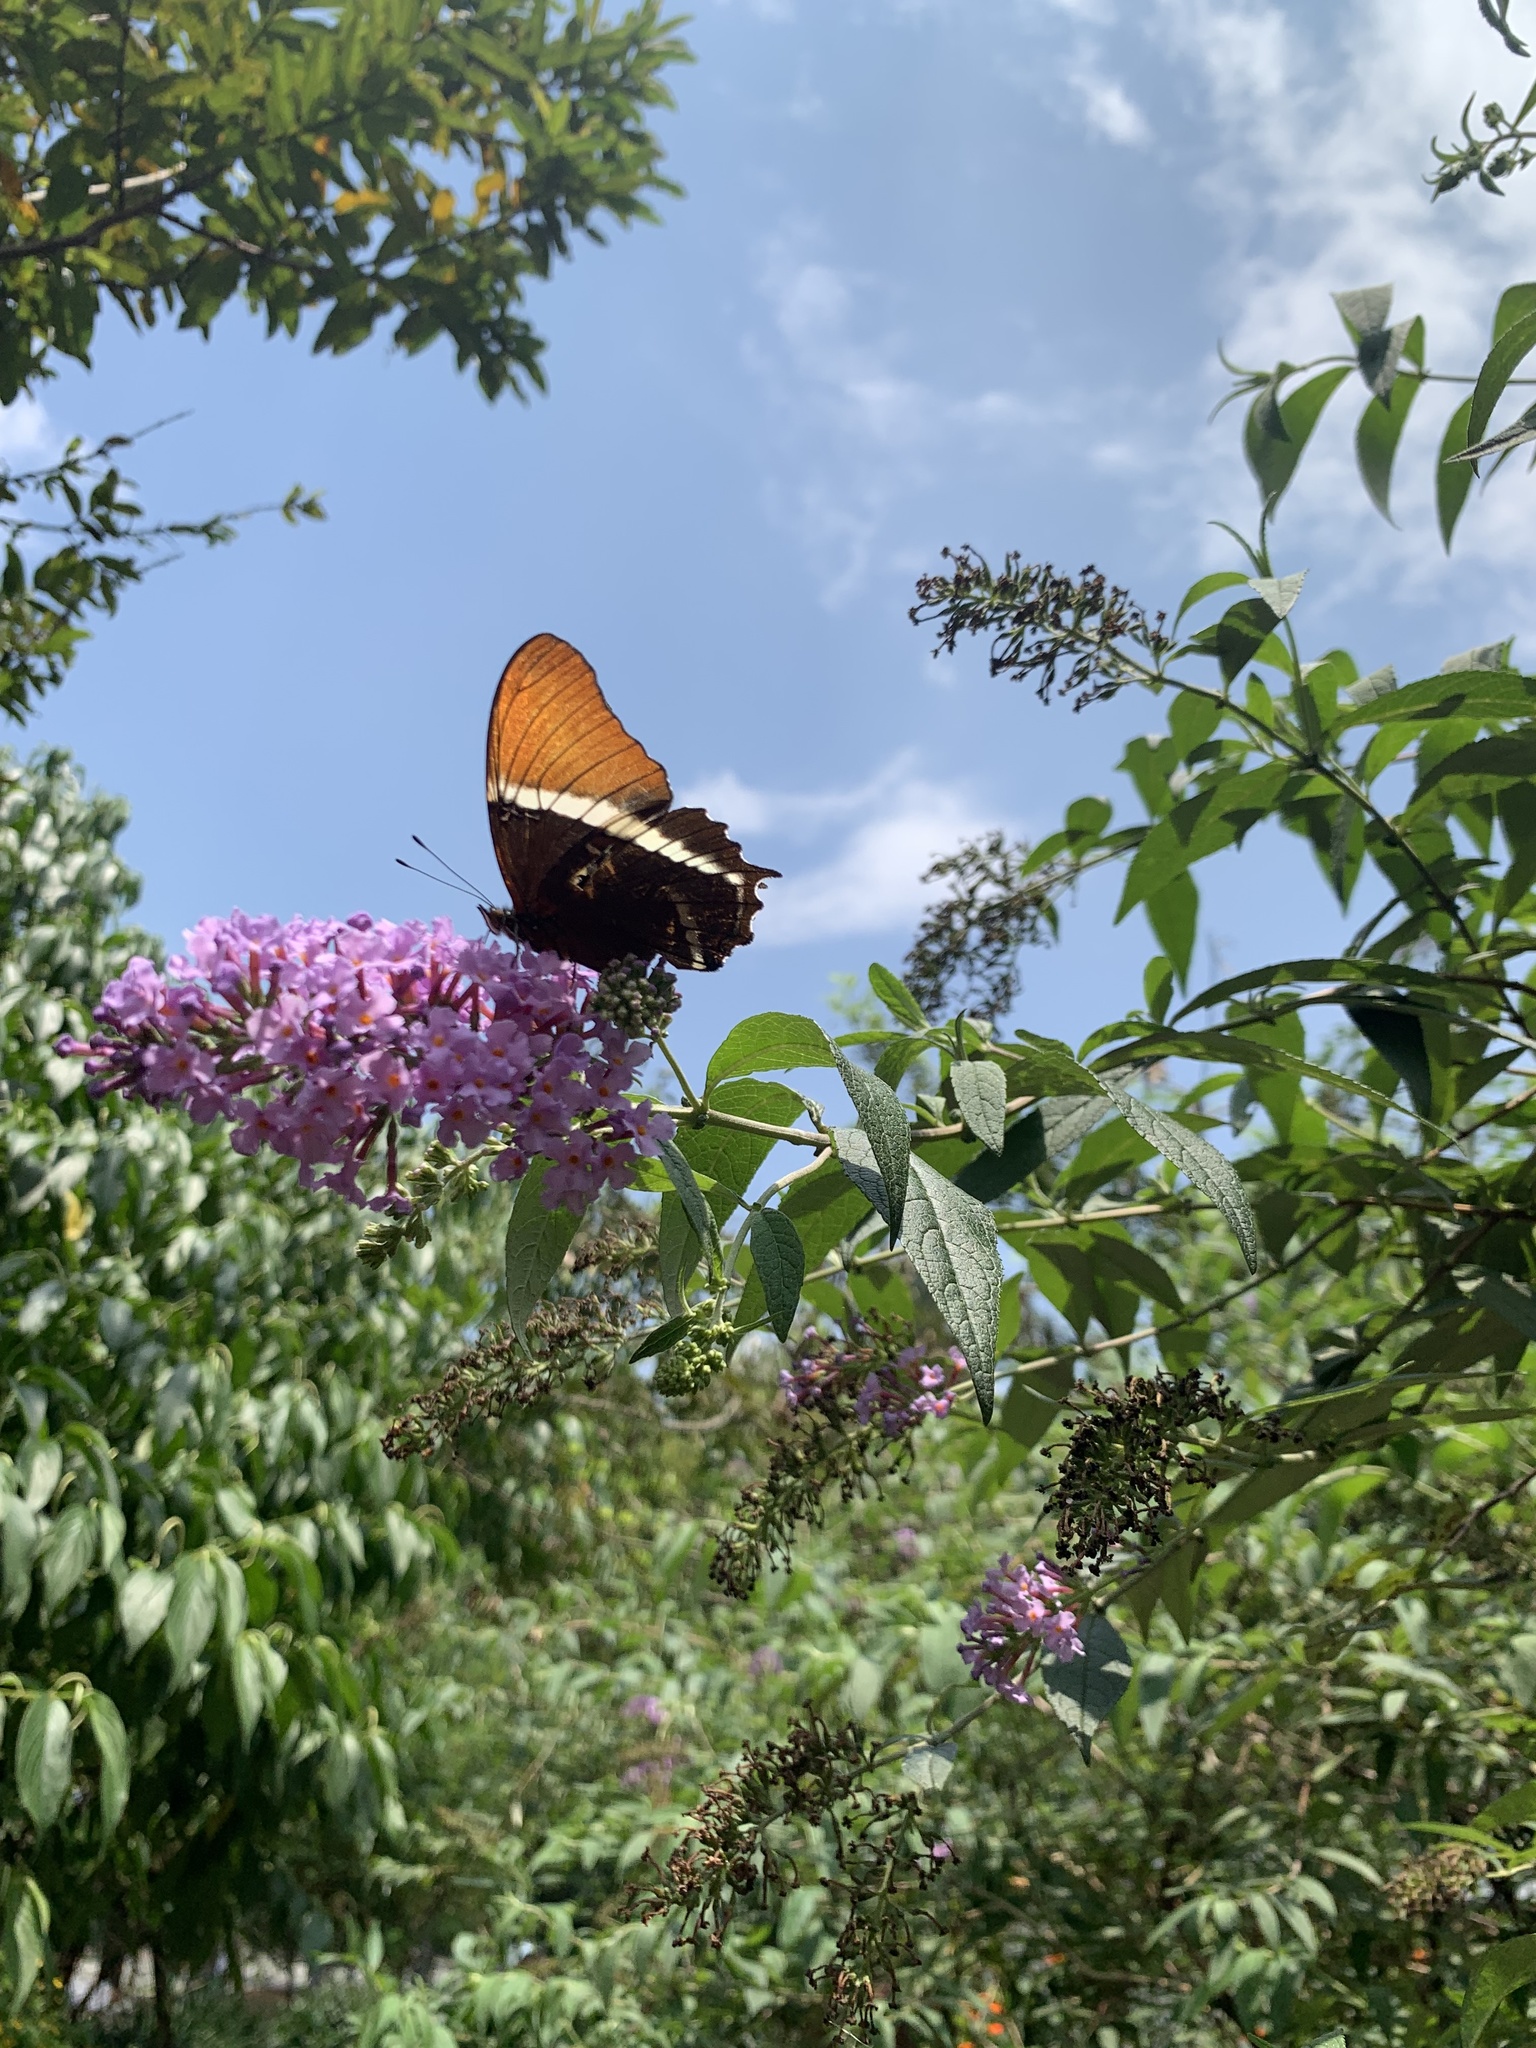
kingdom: Animalia
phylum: Arthropoda
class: Insecta
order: Lepidoptera
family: Nymphalidae
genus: Siproeta
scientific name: Siproeta epaphus
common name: Rusty-tipped page
